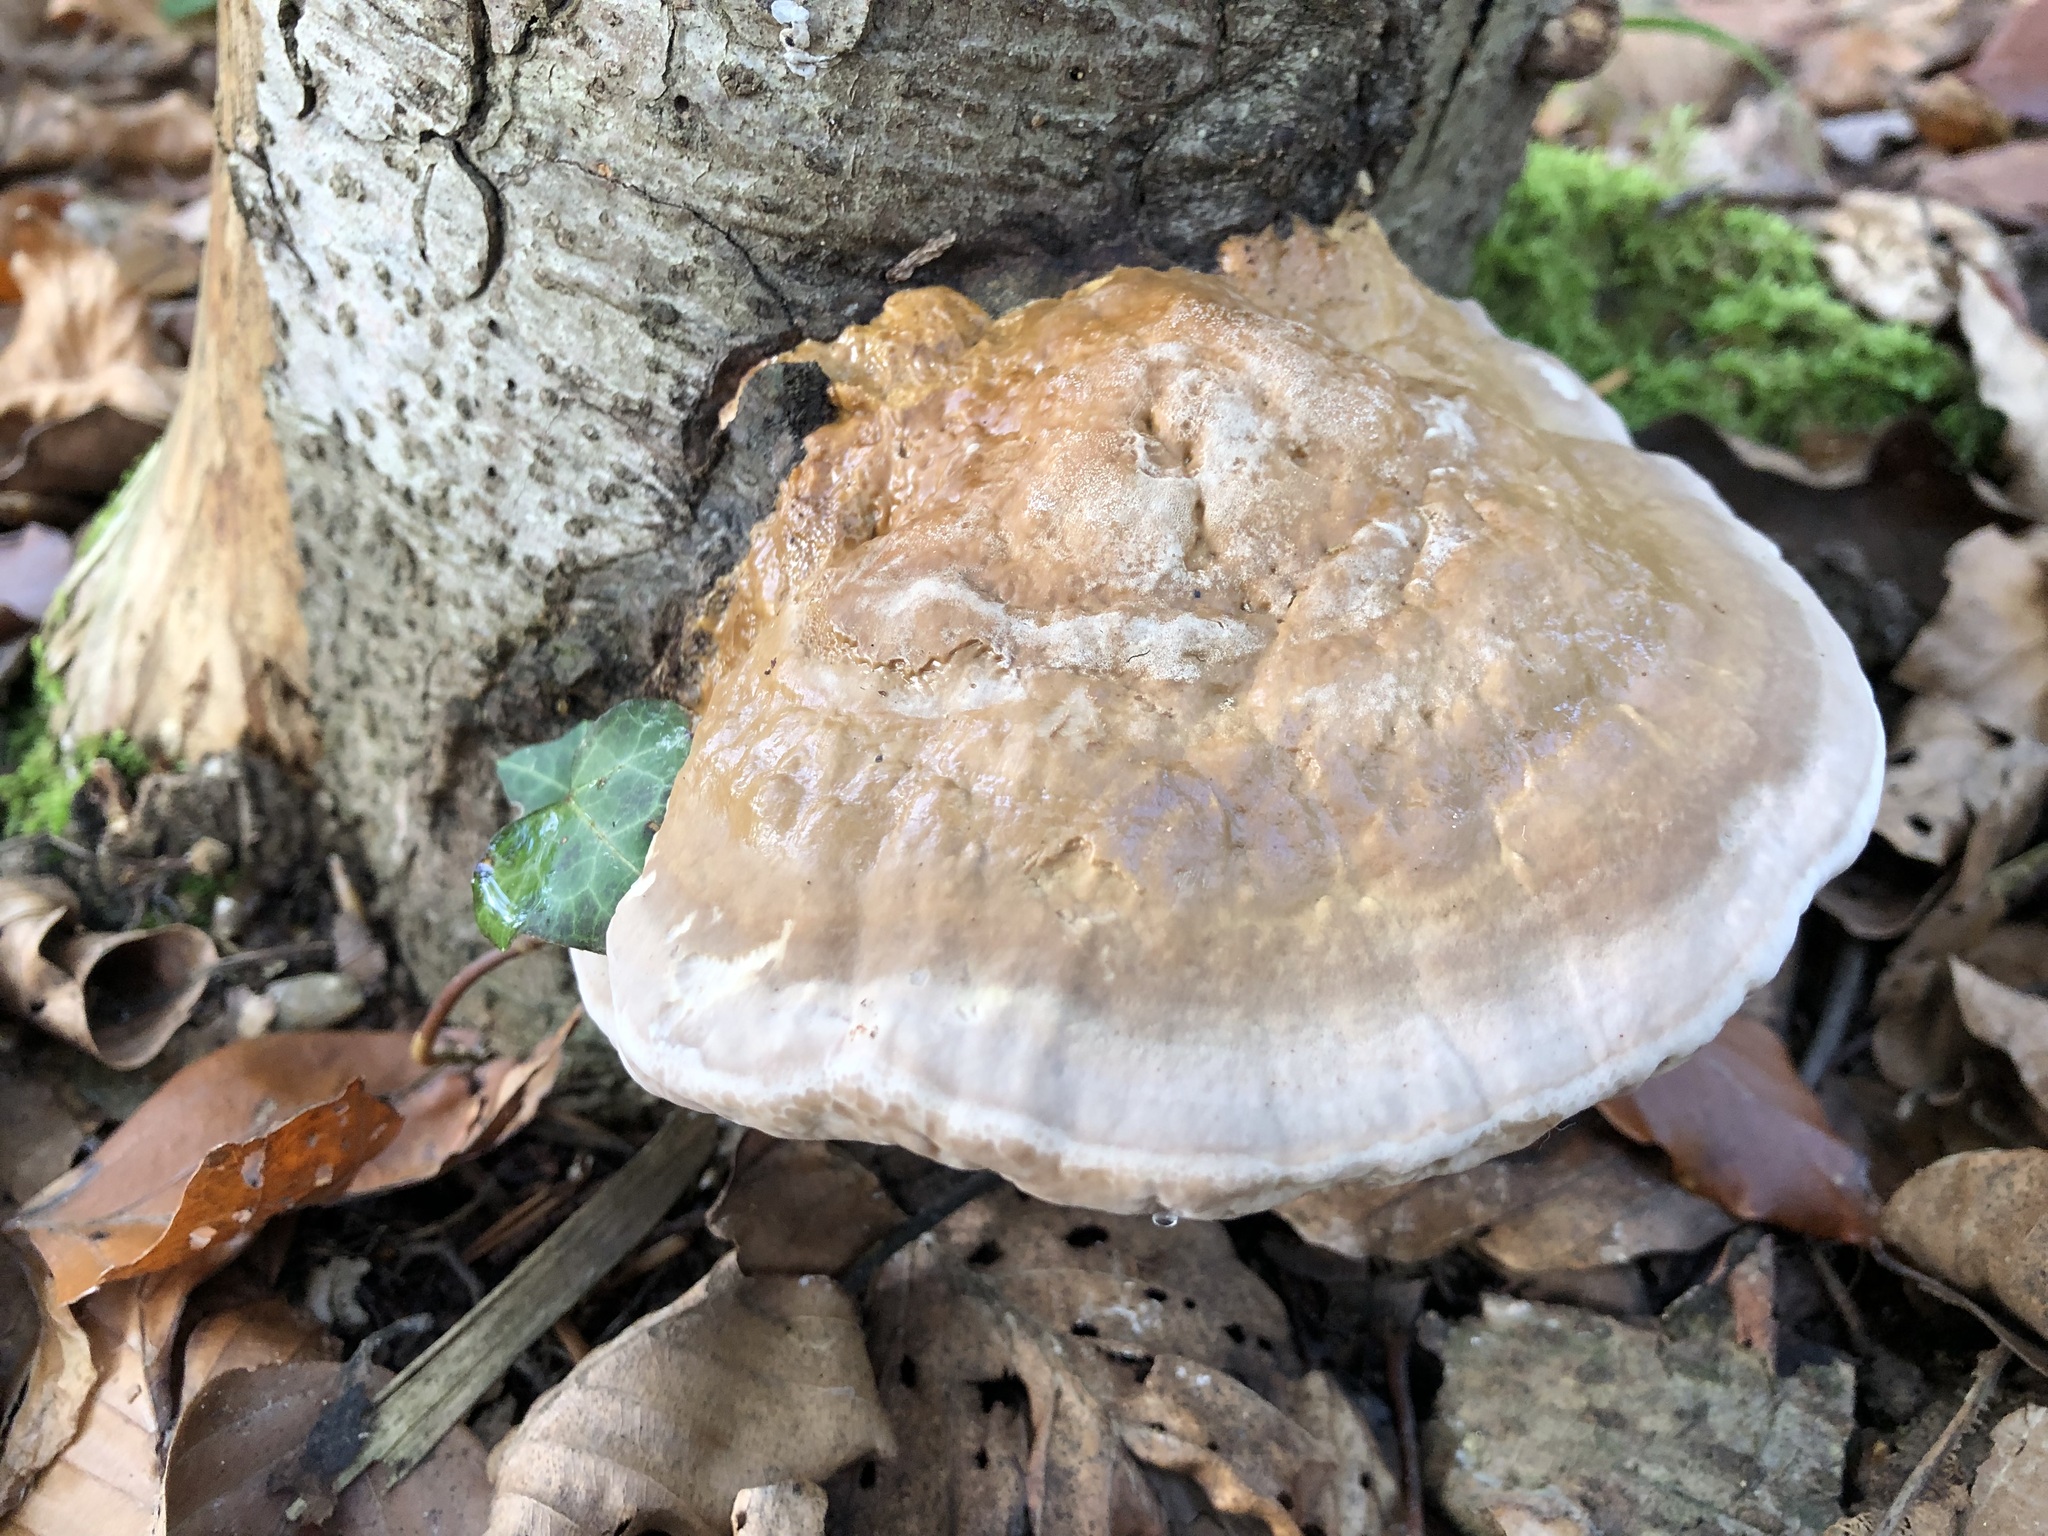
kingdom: Fungi
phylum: Basidiomycota
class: Agaricomycetes
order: Polyporales
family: Fomitopsidaceae
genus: Fomitopsis
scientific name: Fomitopsis pinicola
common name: Red-belted bracket
